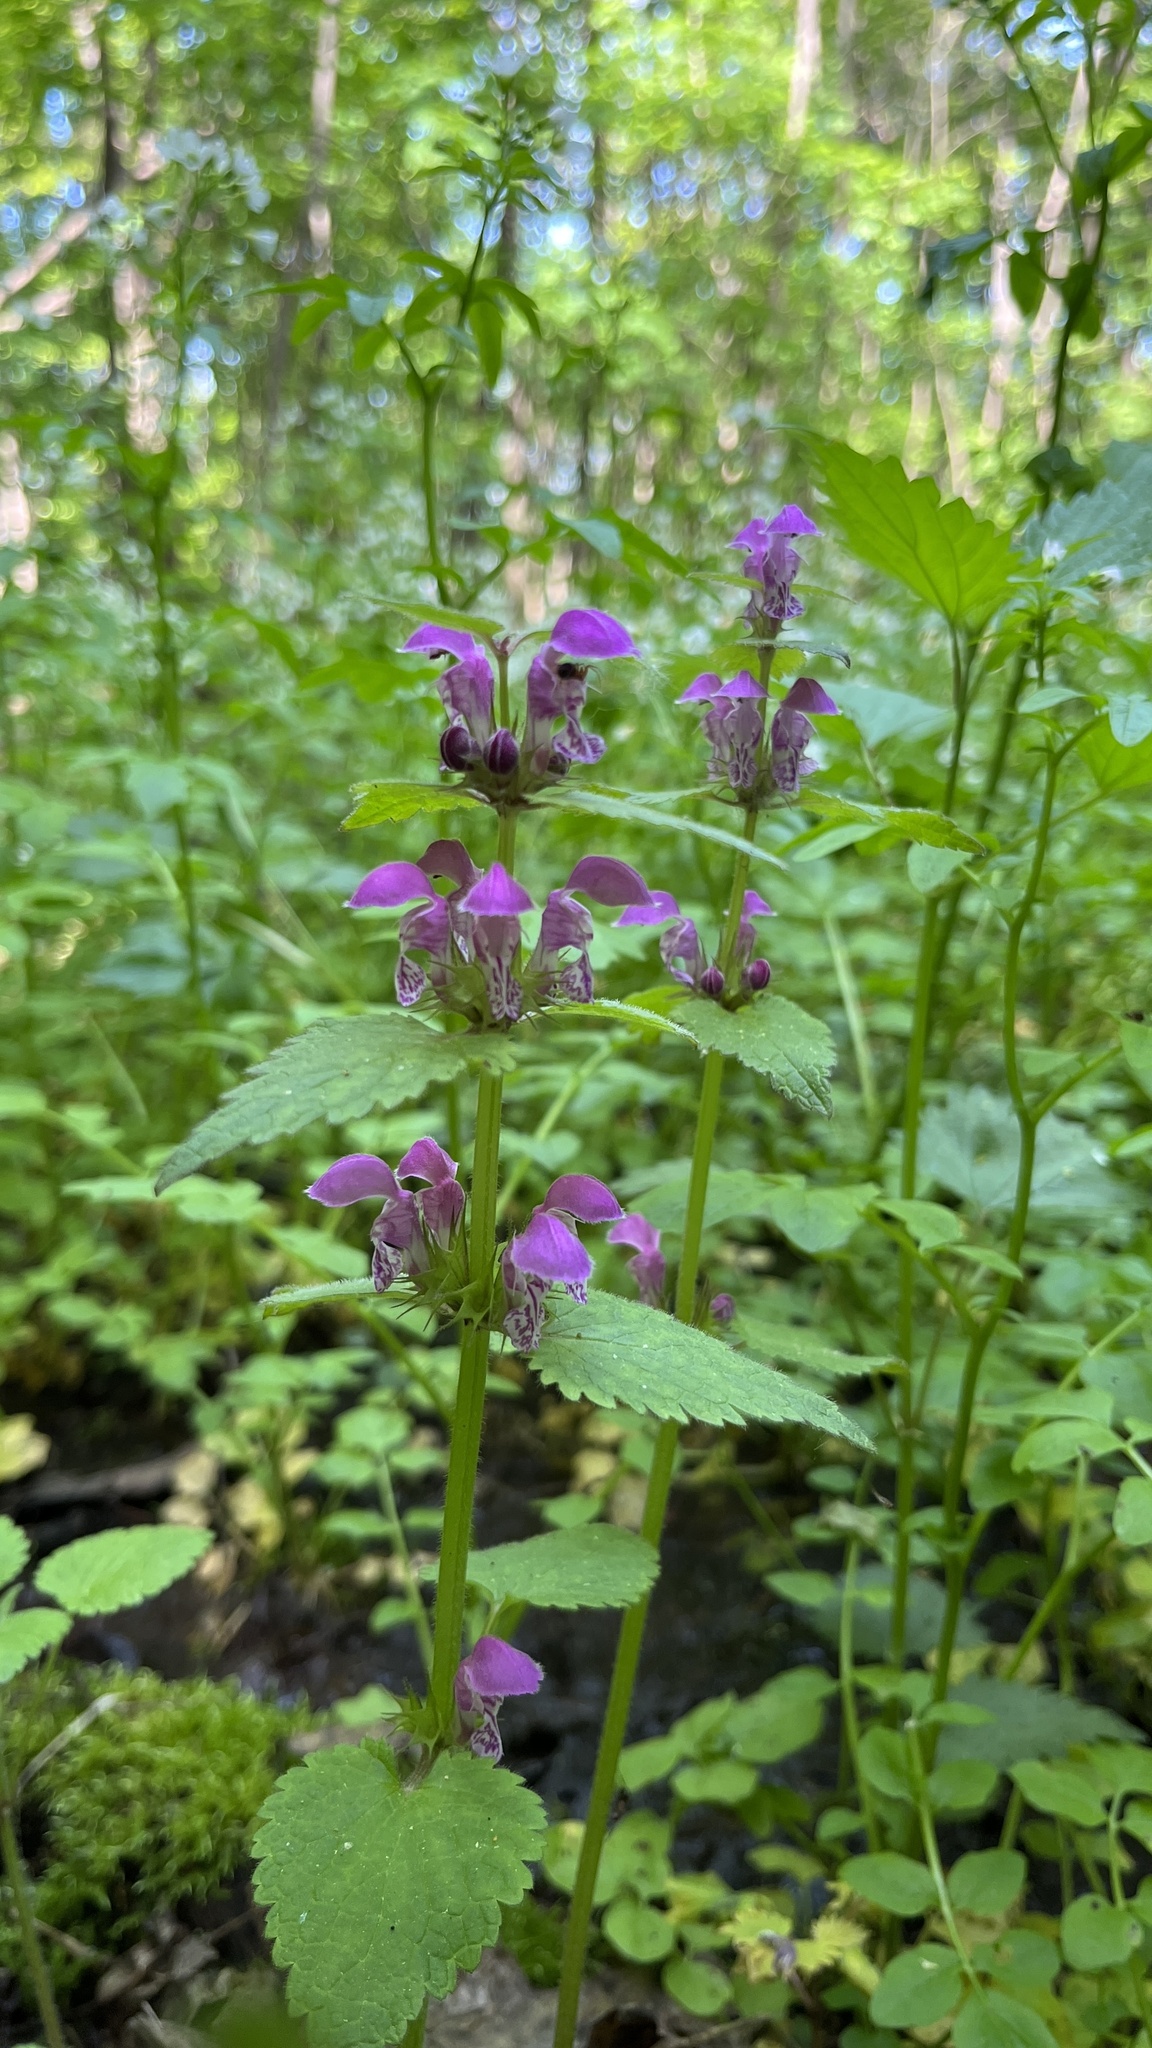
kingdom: Plantae
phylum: Tracheophyta
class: Magnoliopsida
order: Lamiales
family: Lamiaceae
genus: Lamium
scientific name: Lamium maculatum
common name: Spotted dead-nettle
